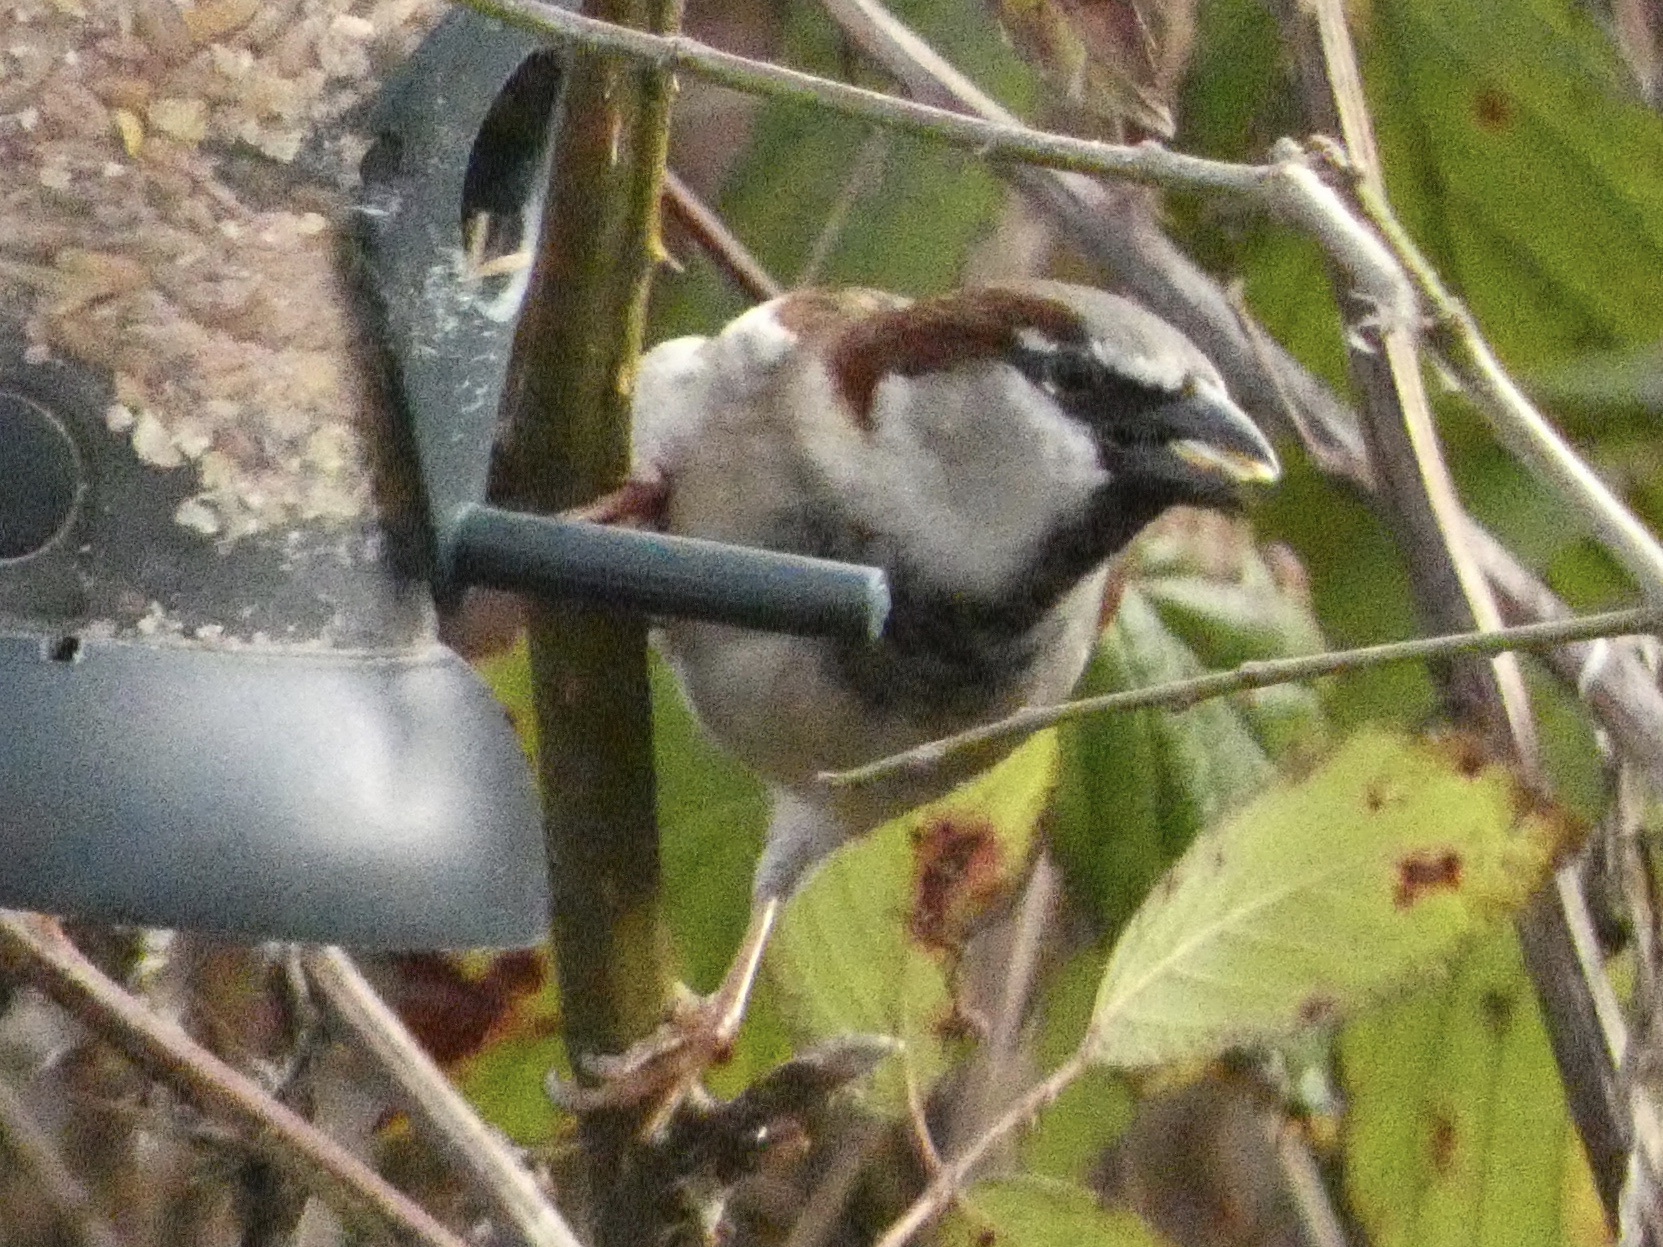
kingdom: Animalia
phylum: Chordata
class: Aves
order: Passeriformes
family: Passeridae
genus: Passer
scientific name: Passer domesticus
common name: House sparrow
